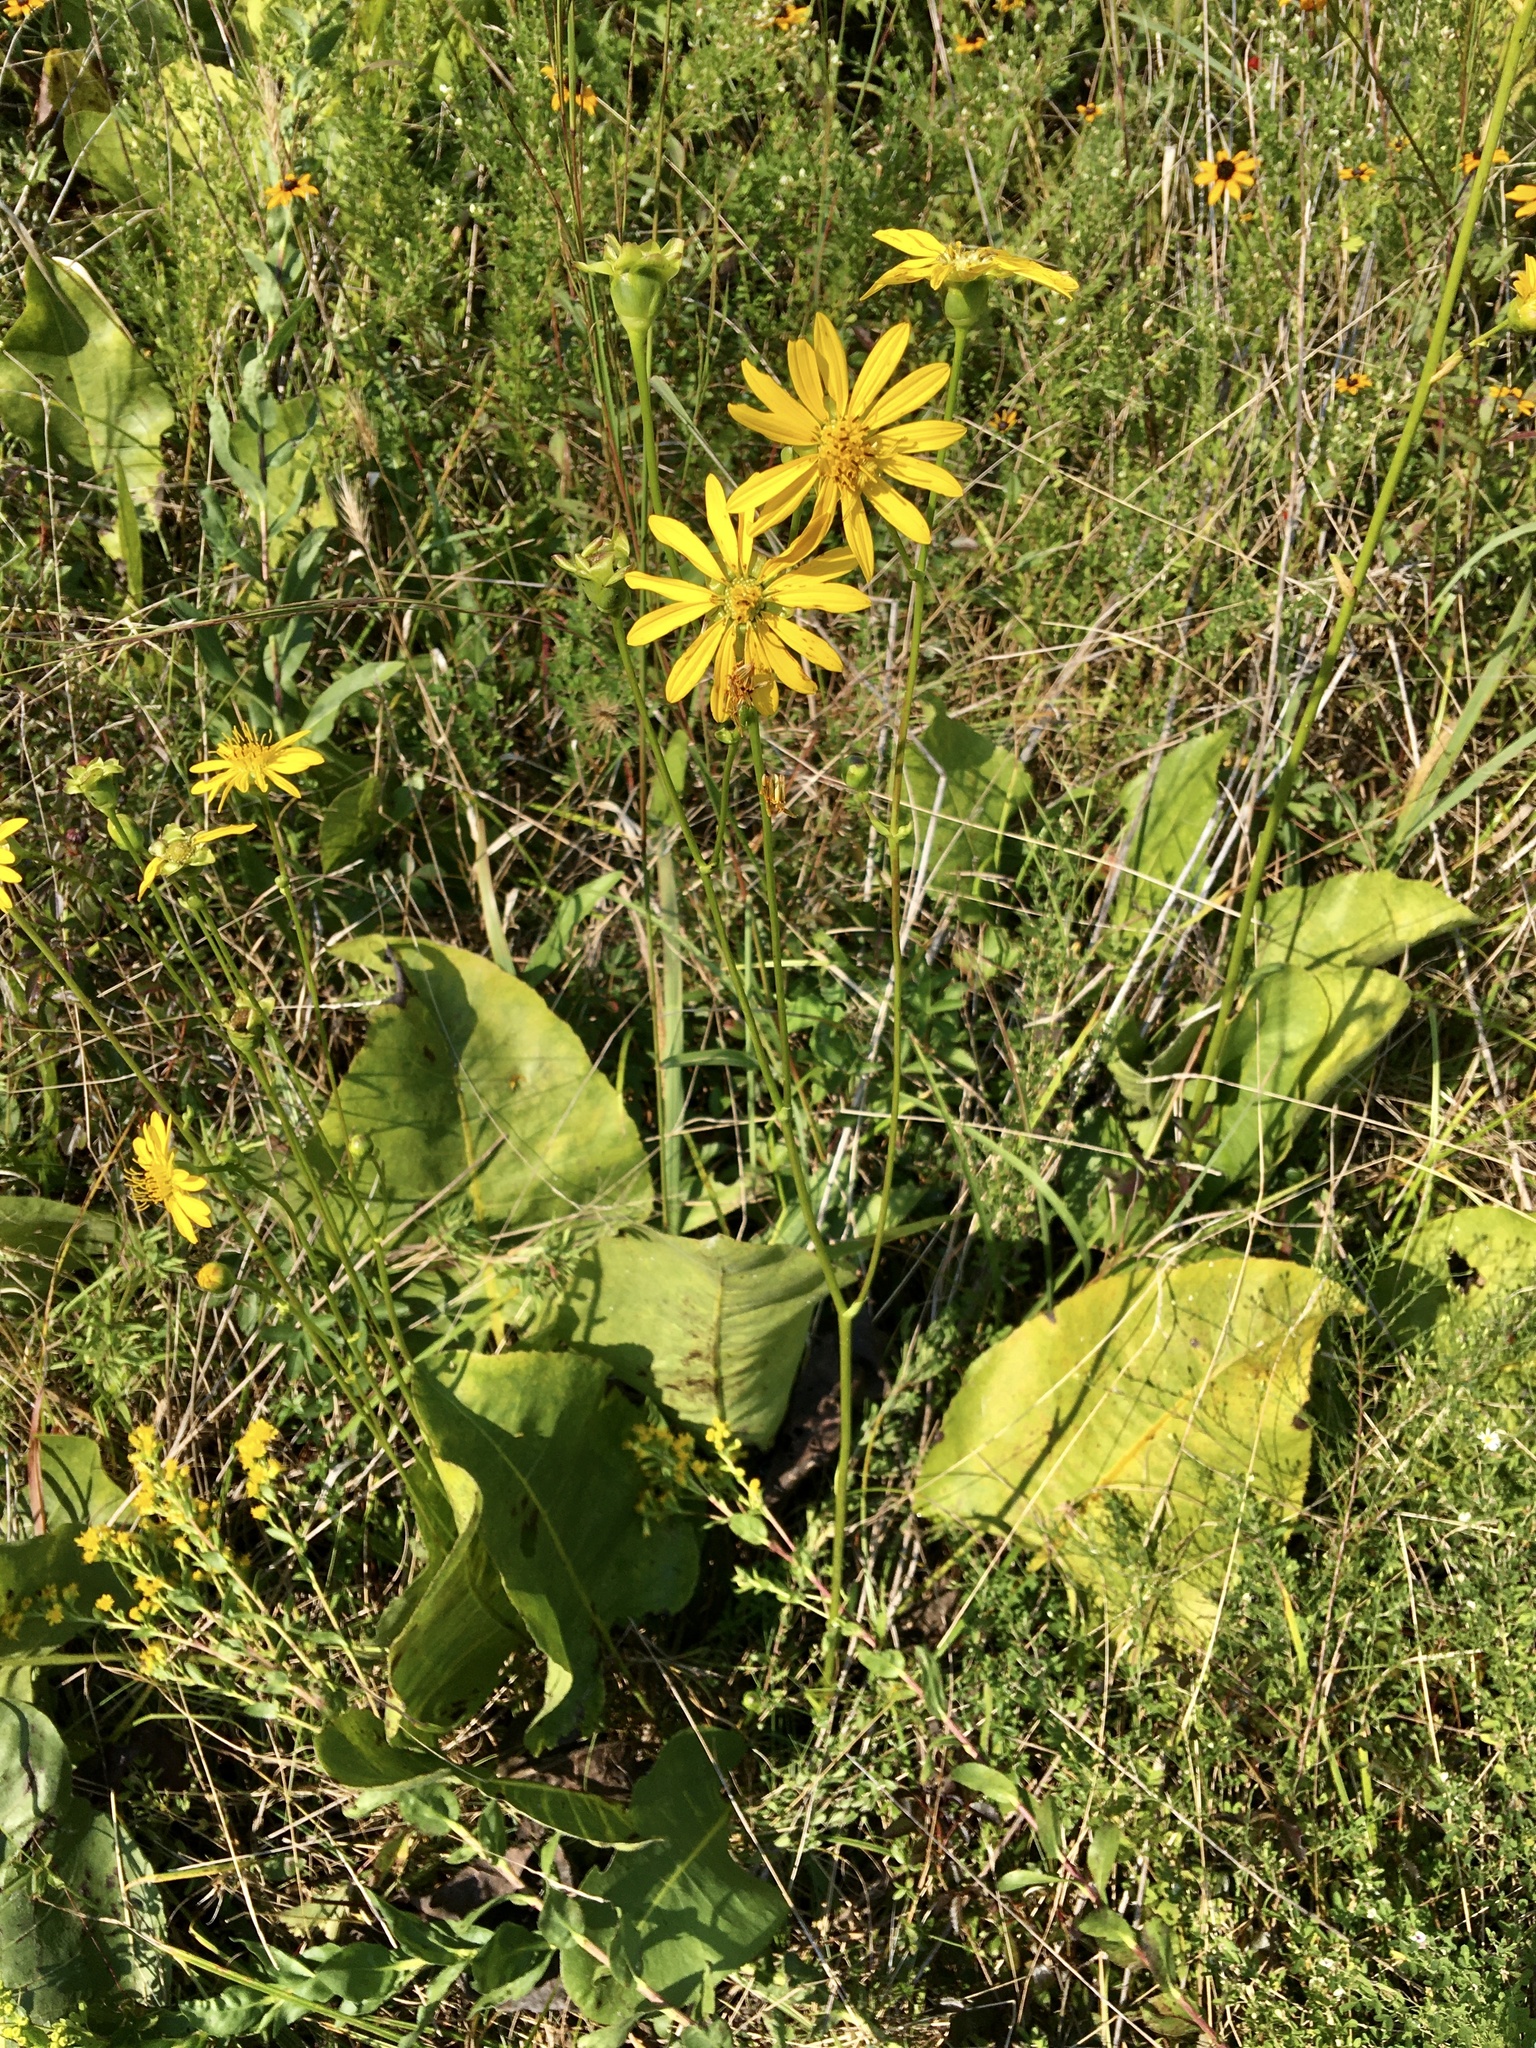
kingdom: Plantae
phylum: Tracheophyta
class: Magnoliopsida
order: Asterales
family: Asteraceae
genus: Silphium
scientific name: Silphium terebinthinaceum
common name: Basal-leaf rosinweed
